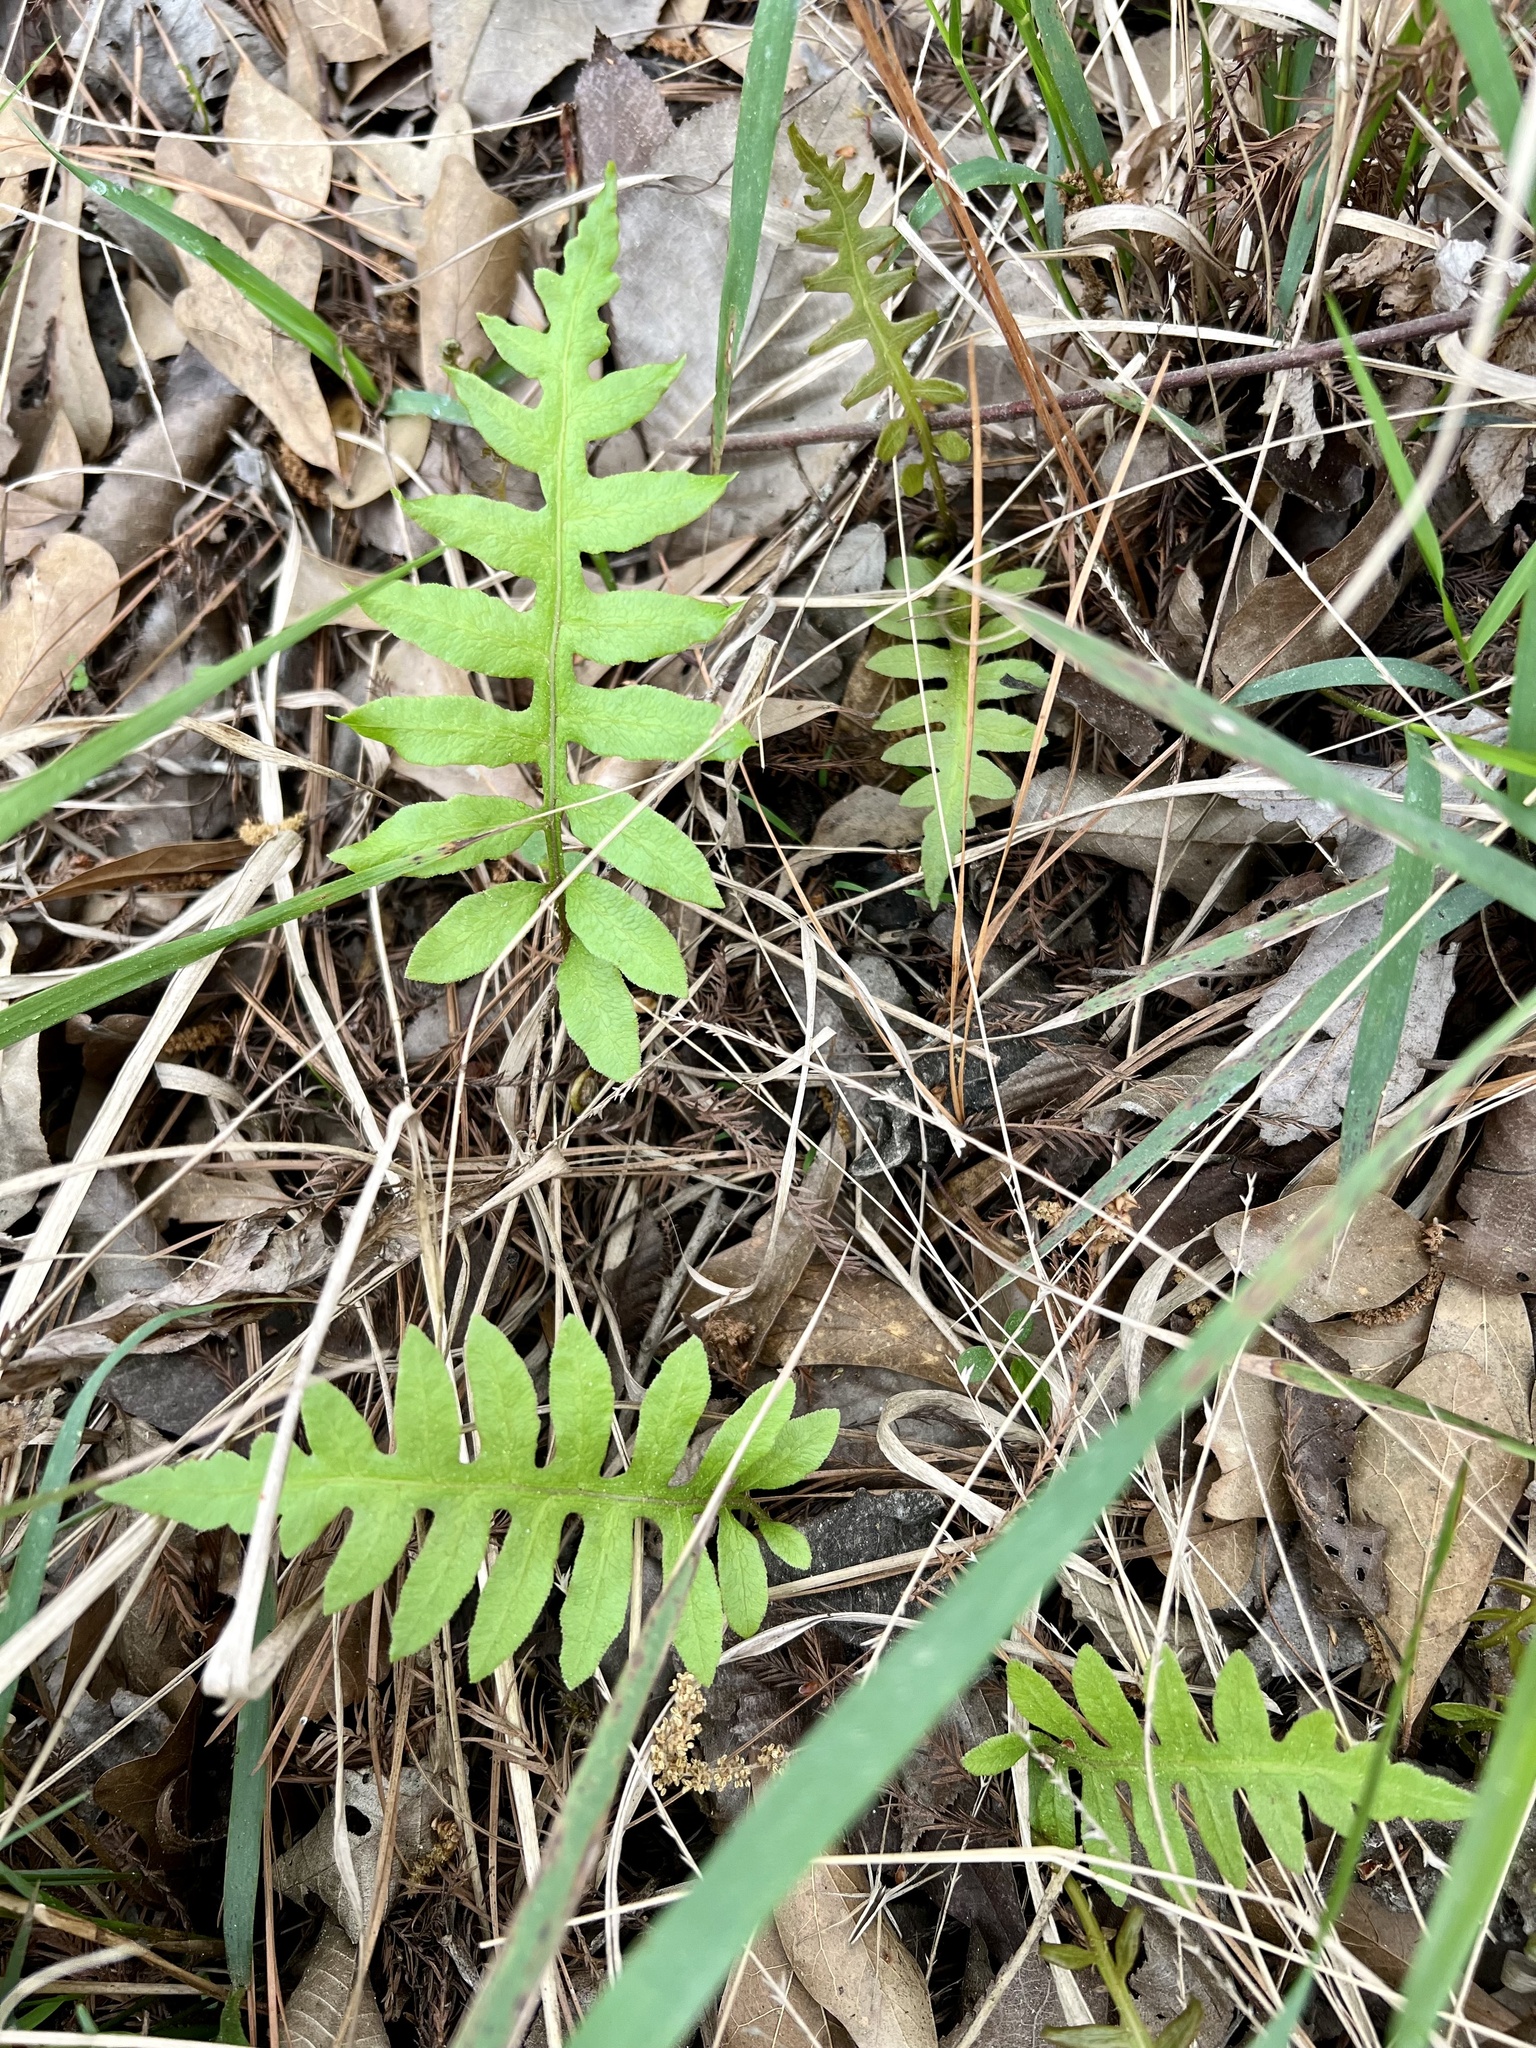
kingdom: Plantae
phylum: Tracheophyta
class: Polypodiopsida
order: Polypodiales
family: Blechnaceae
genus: Lorinseria
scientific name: Lorinseria areolata
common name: Dwarf chain fern
